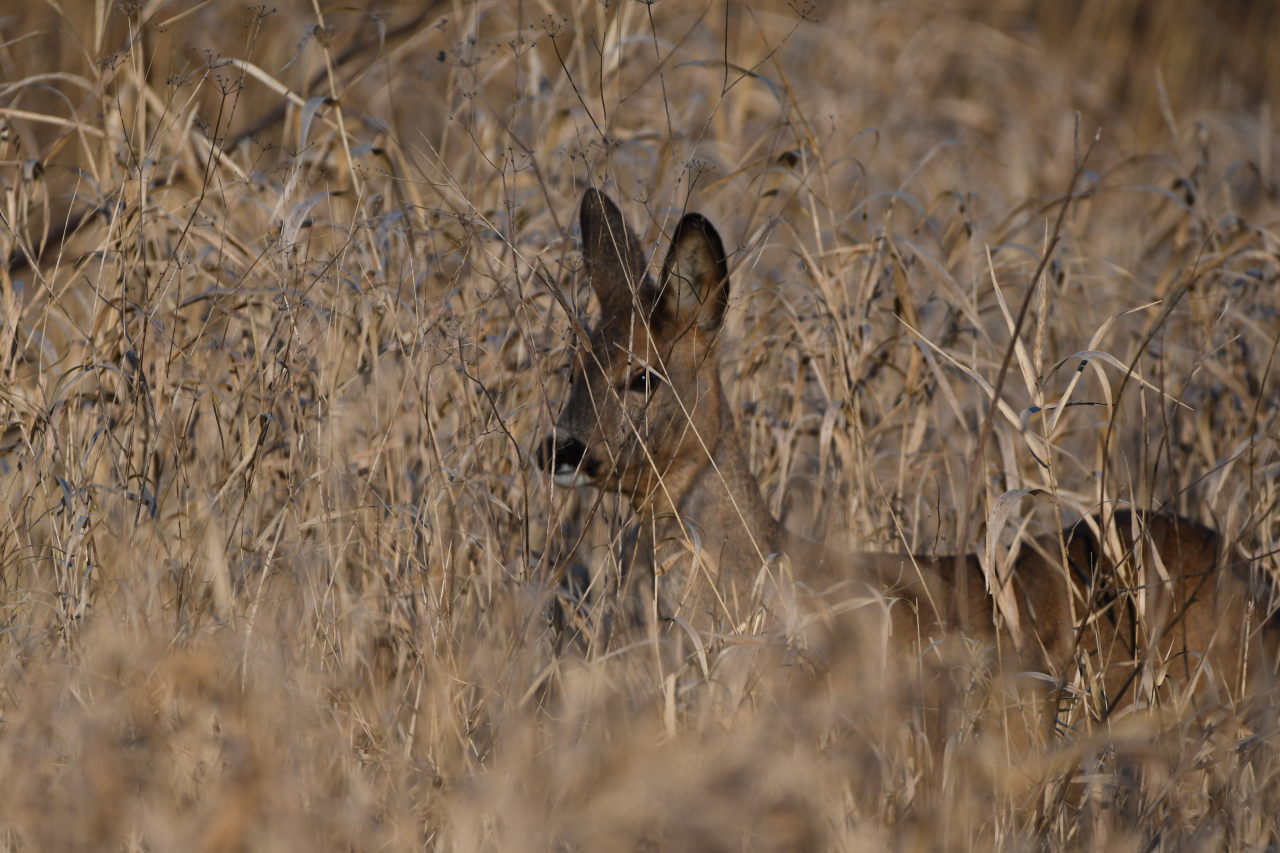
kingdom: Animalia
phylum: Chordata
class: Mammalia
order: Artiodactyla
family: Cervidae
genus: Capreolus
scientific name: Capreolus capreolus
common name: Western roe deer
